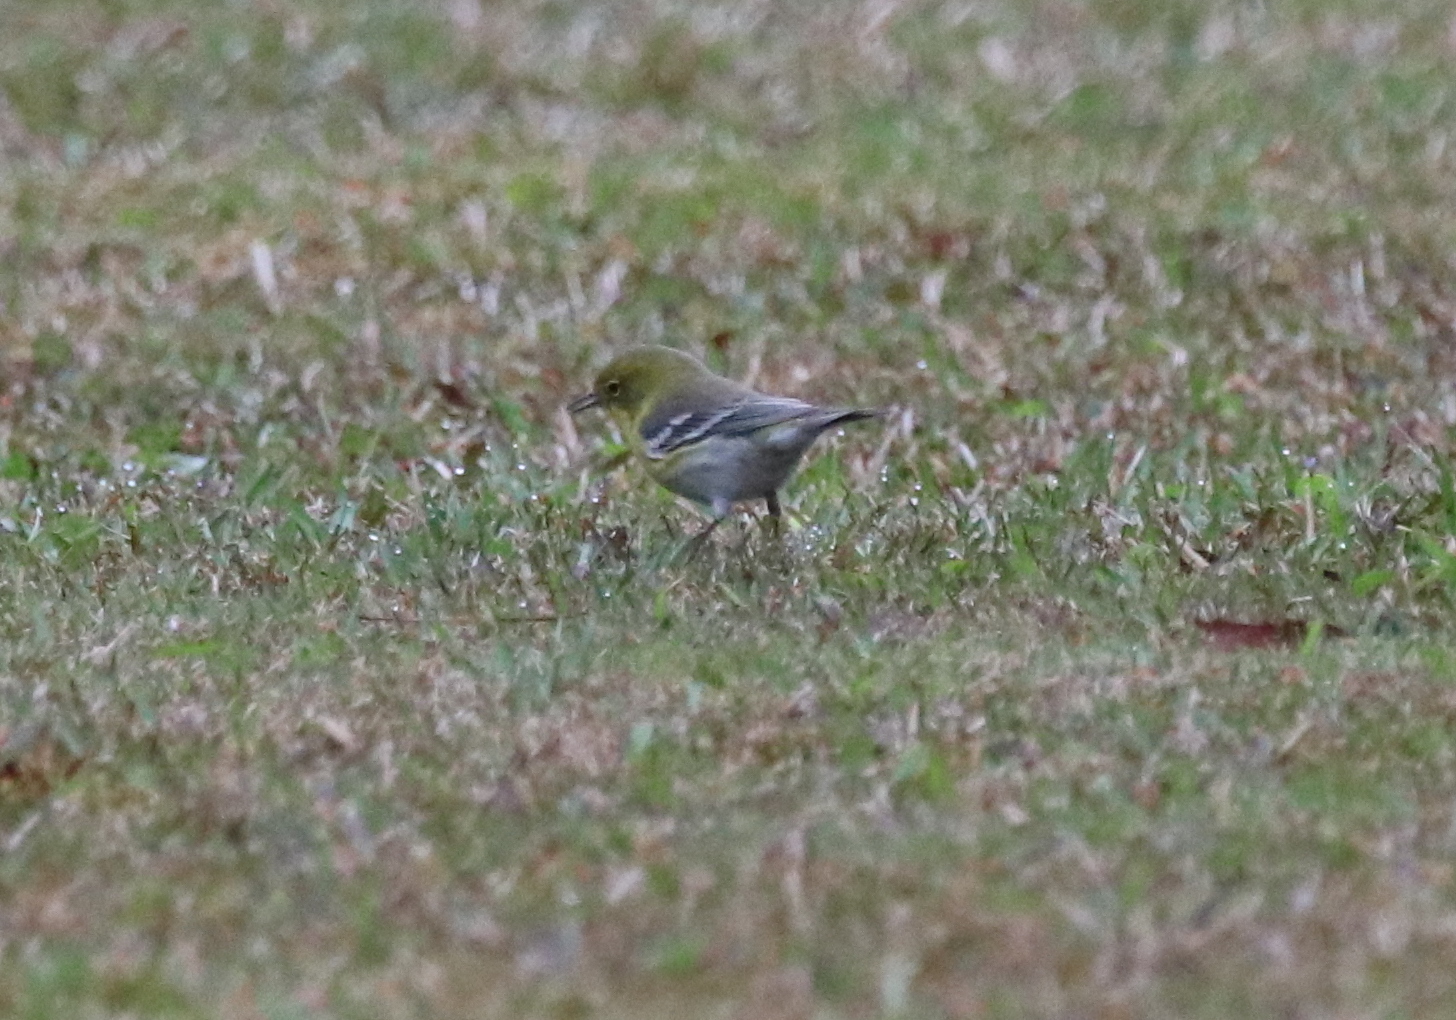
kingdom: Animalia
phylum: Chordata
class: Aves
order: Passeriformes
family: Parulidae
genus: Setophaga
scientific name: Setophaga pinus
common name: Pine warbler
